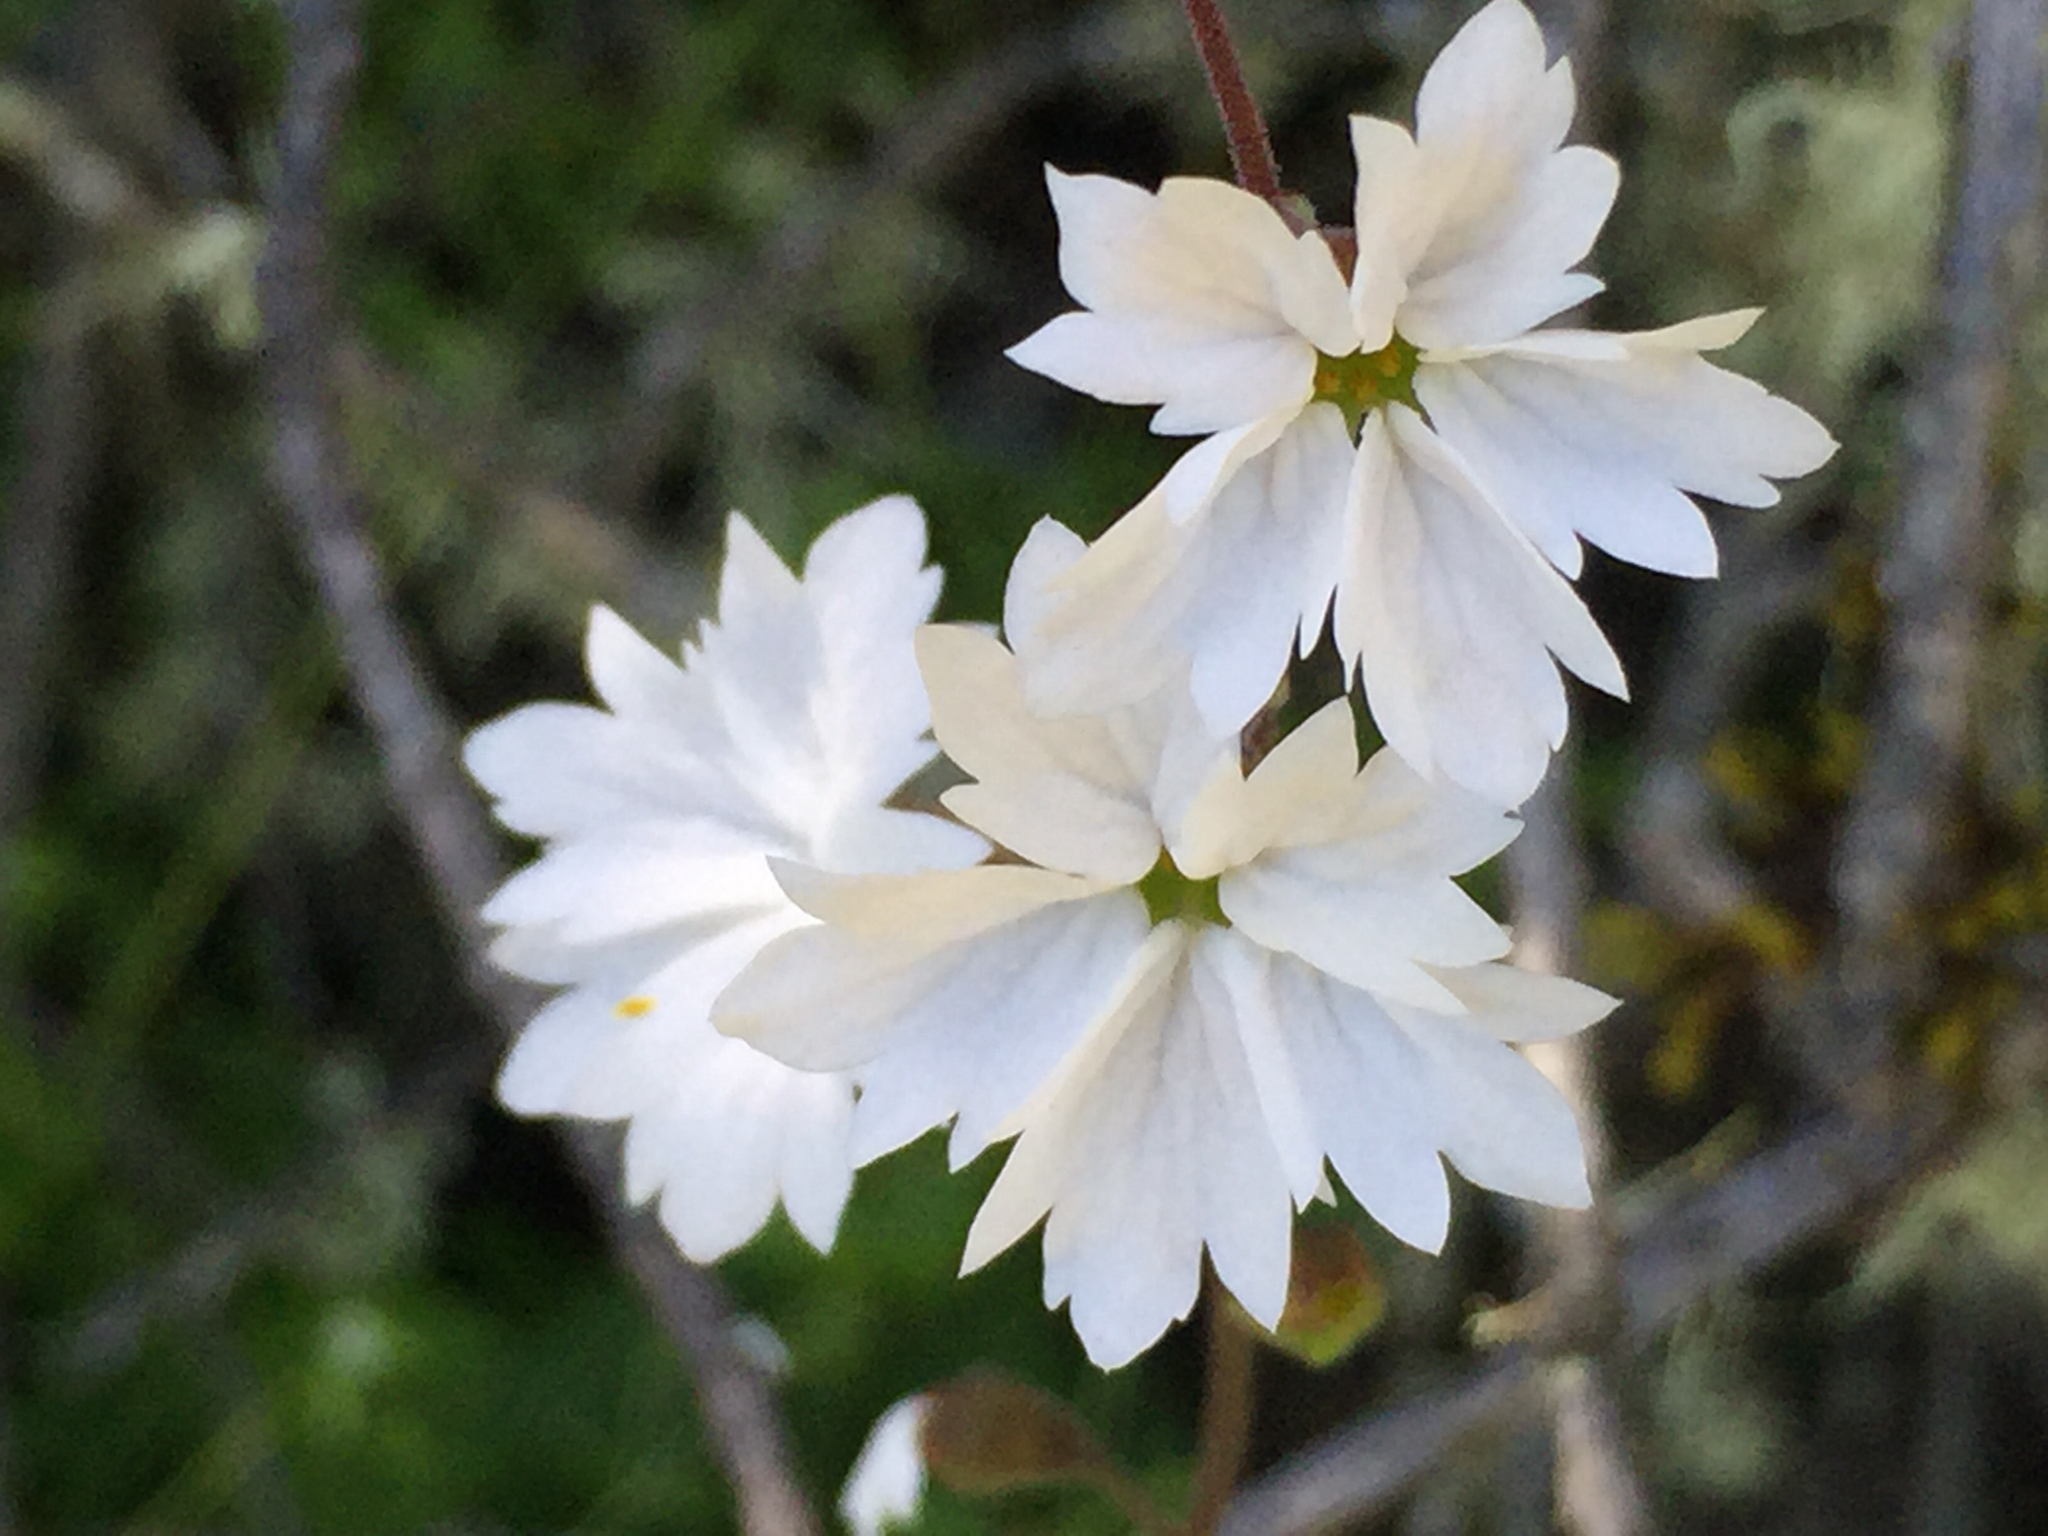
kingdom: Plantae
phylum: Tracheophyta
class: Magnoliopsida
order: Saxifragales
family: Saxifragaceae
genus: Lithophragma
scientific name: Lithophragma affine
